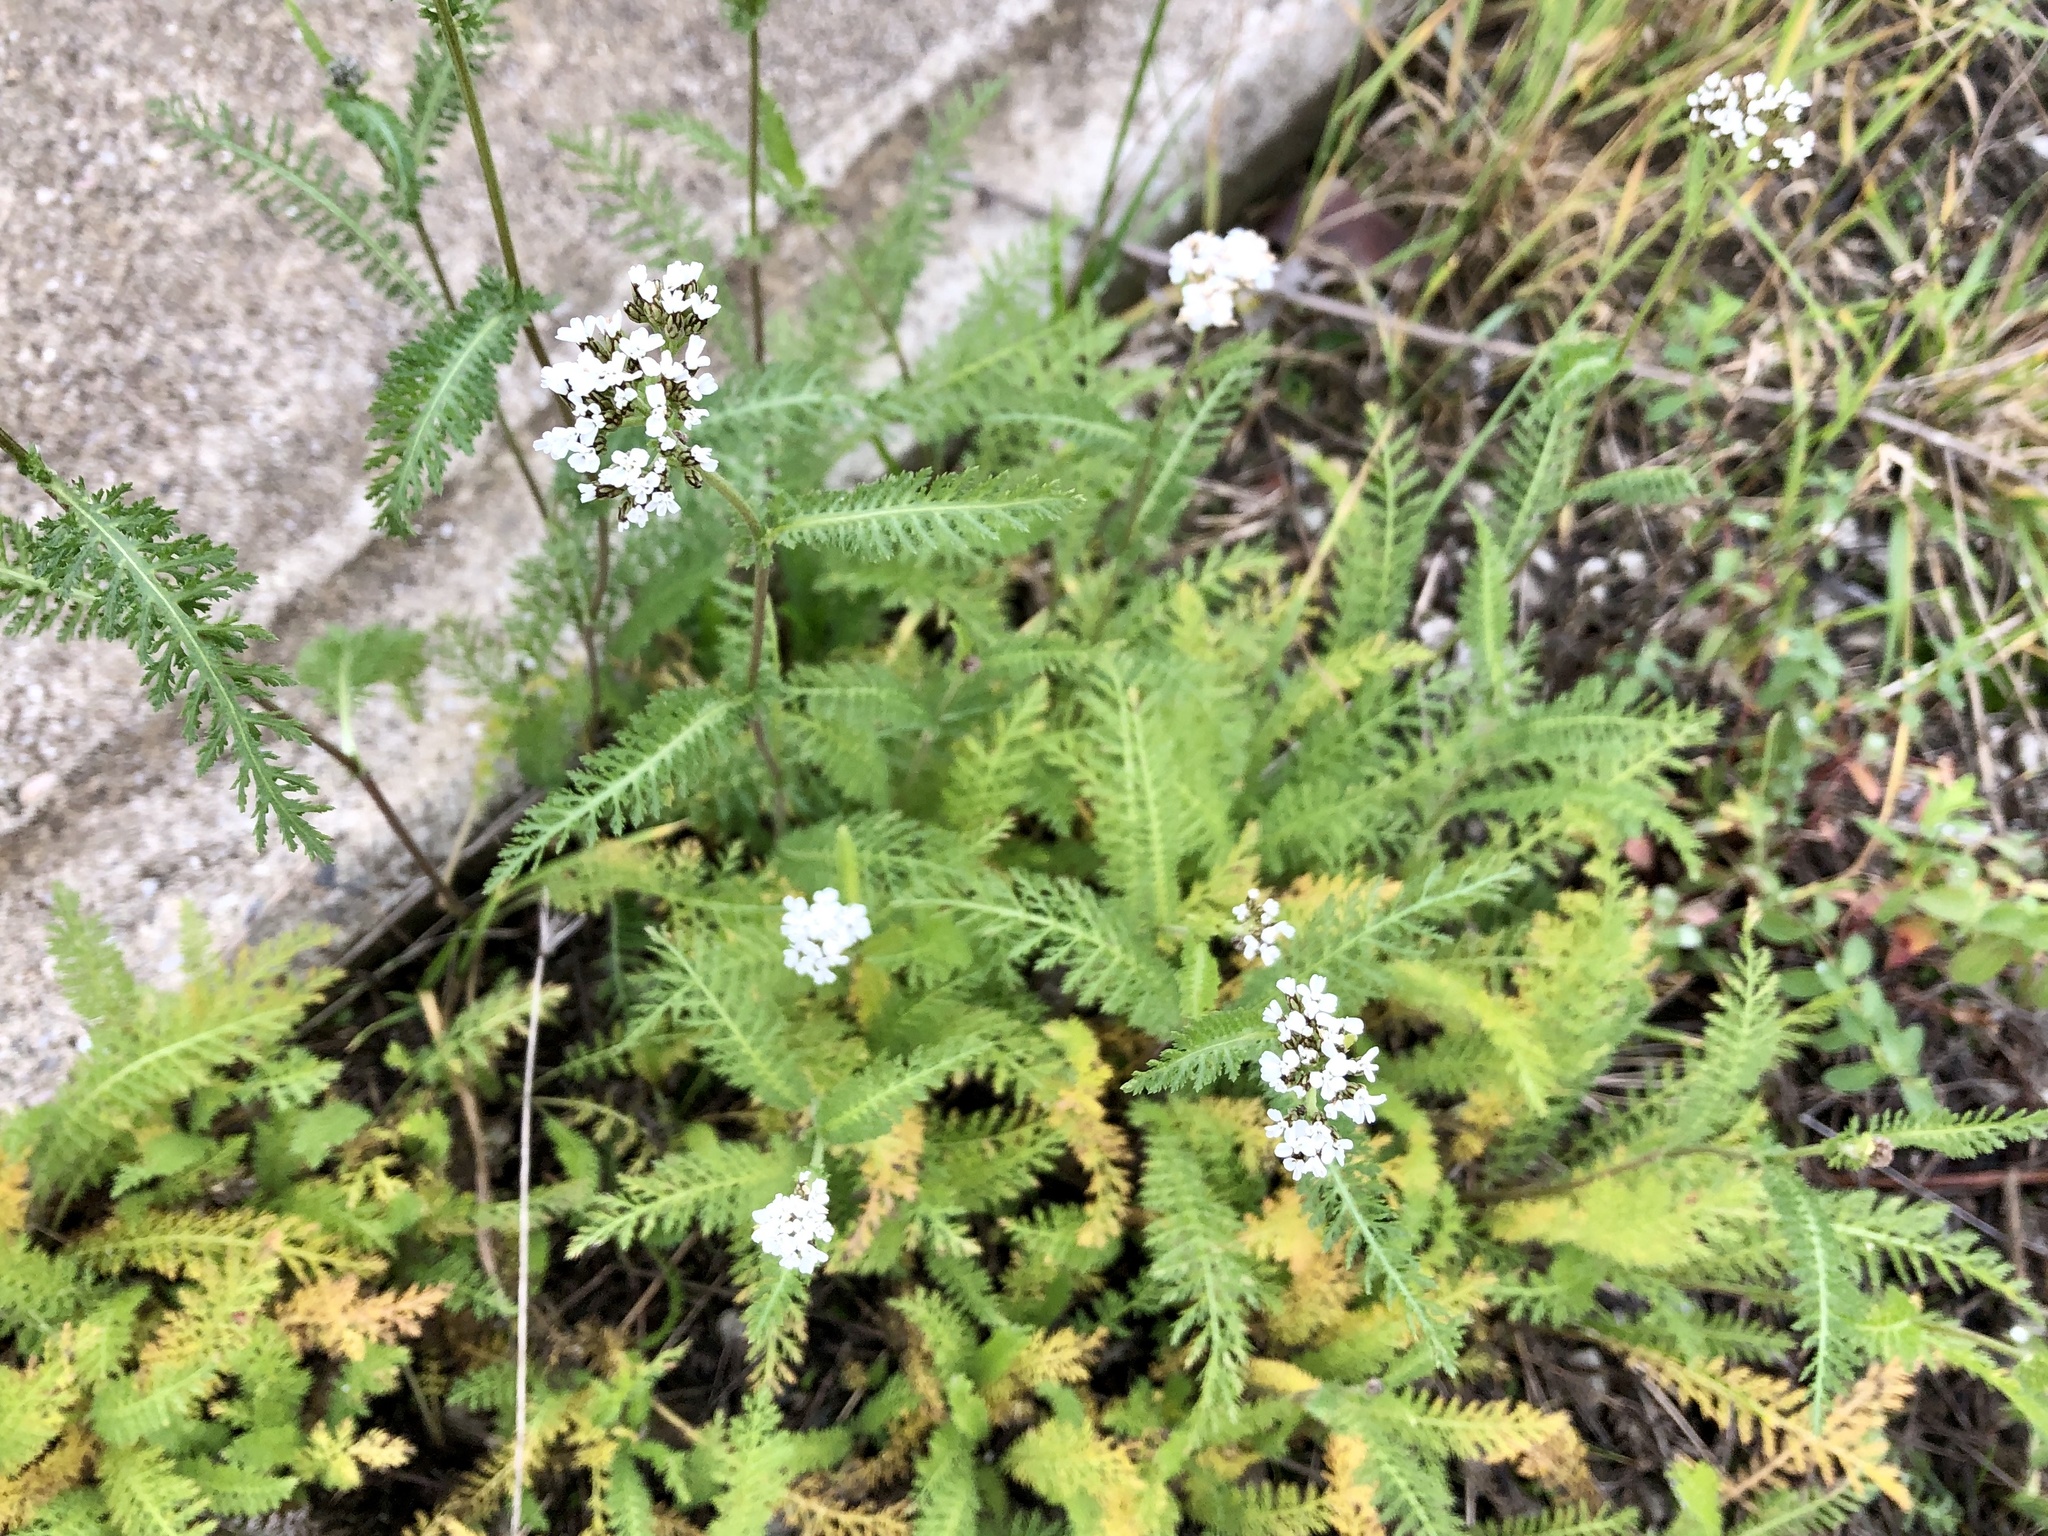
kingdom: Plantae
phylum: Tracheophyta
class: Magnoliopsida
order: Asterales
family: Asteraceae
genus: Achillea
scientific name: Achillea millefolium
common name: Yarrow
